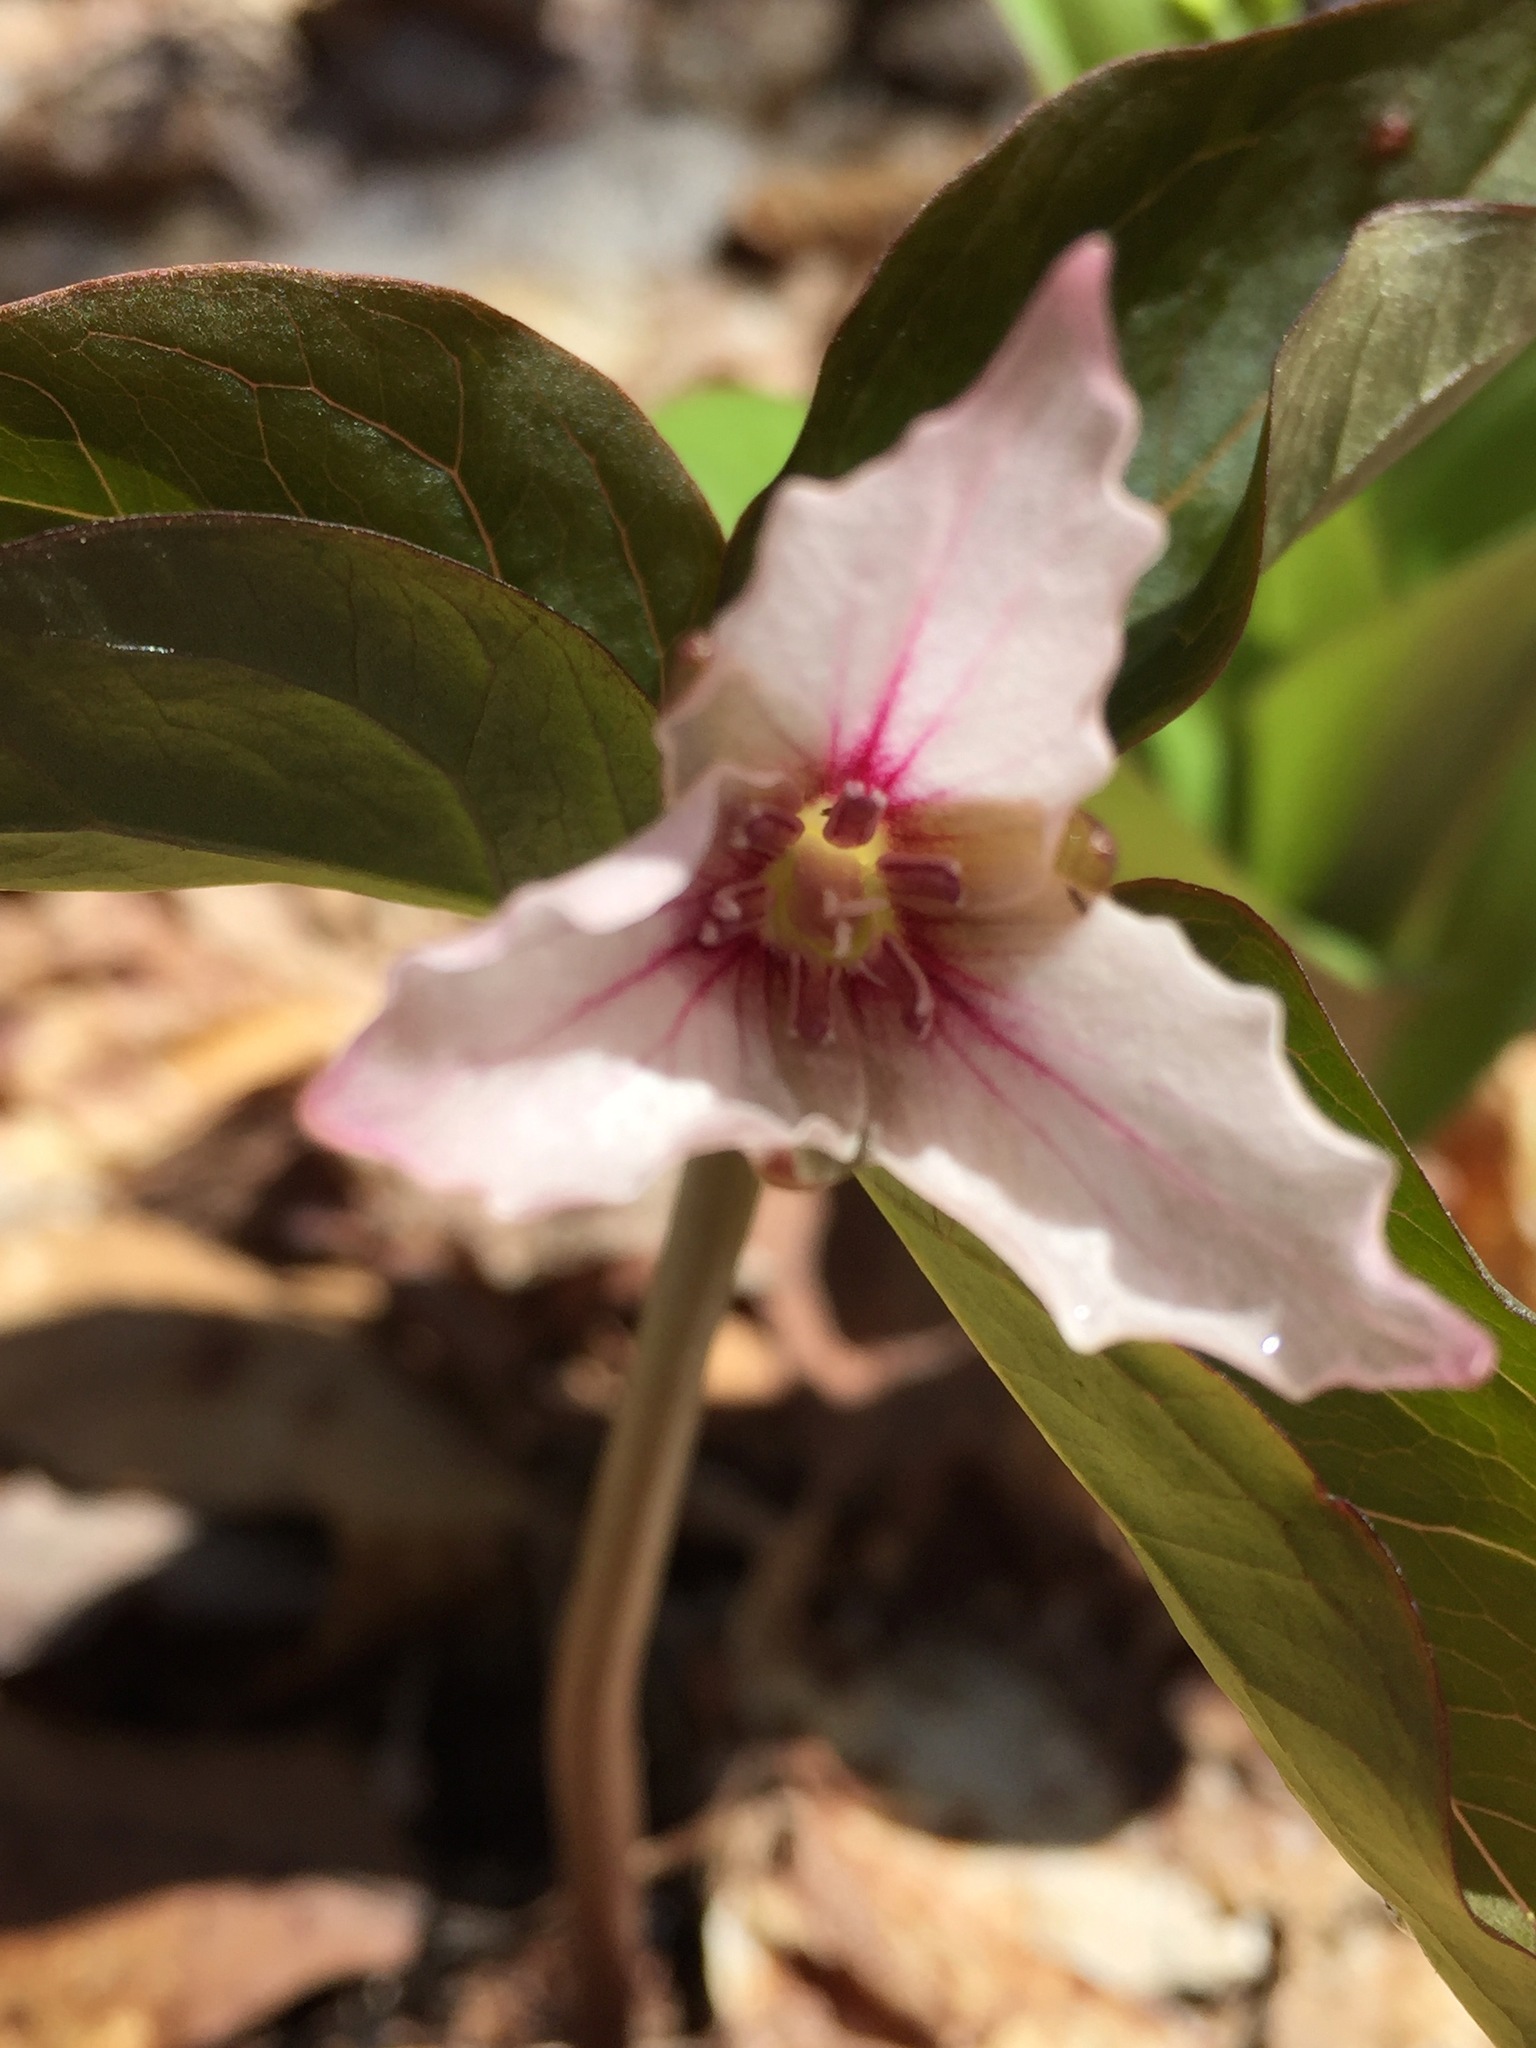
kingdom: Plantae
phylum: Tracheophyta
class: Liliopsida
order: Liliales
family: Melanthiaceae
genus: Trillium
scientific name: Trillium undulatum
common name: Paint trillium
